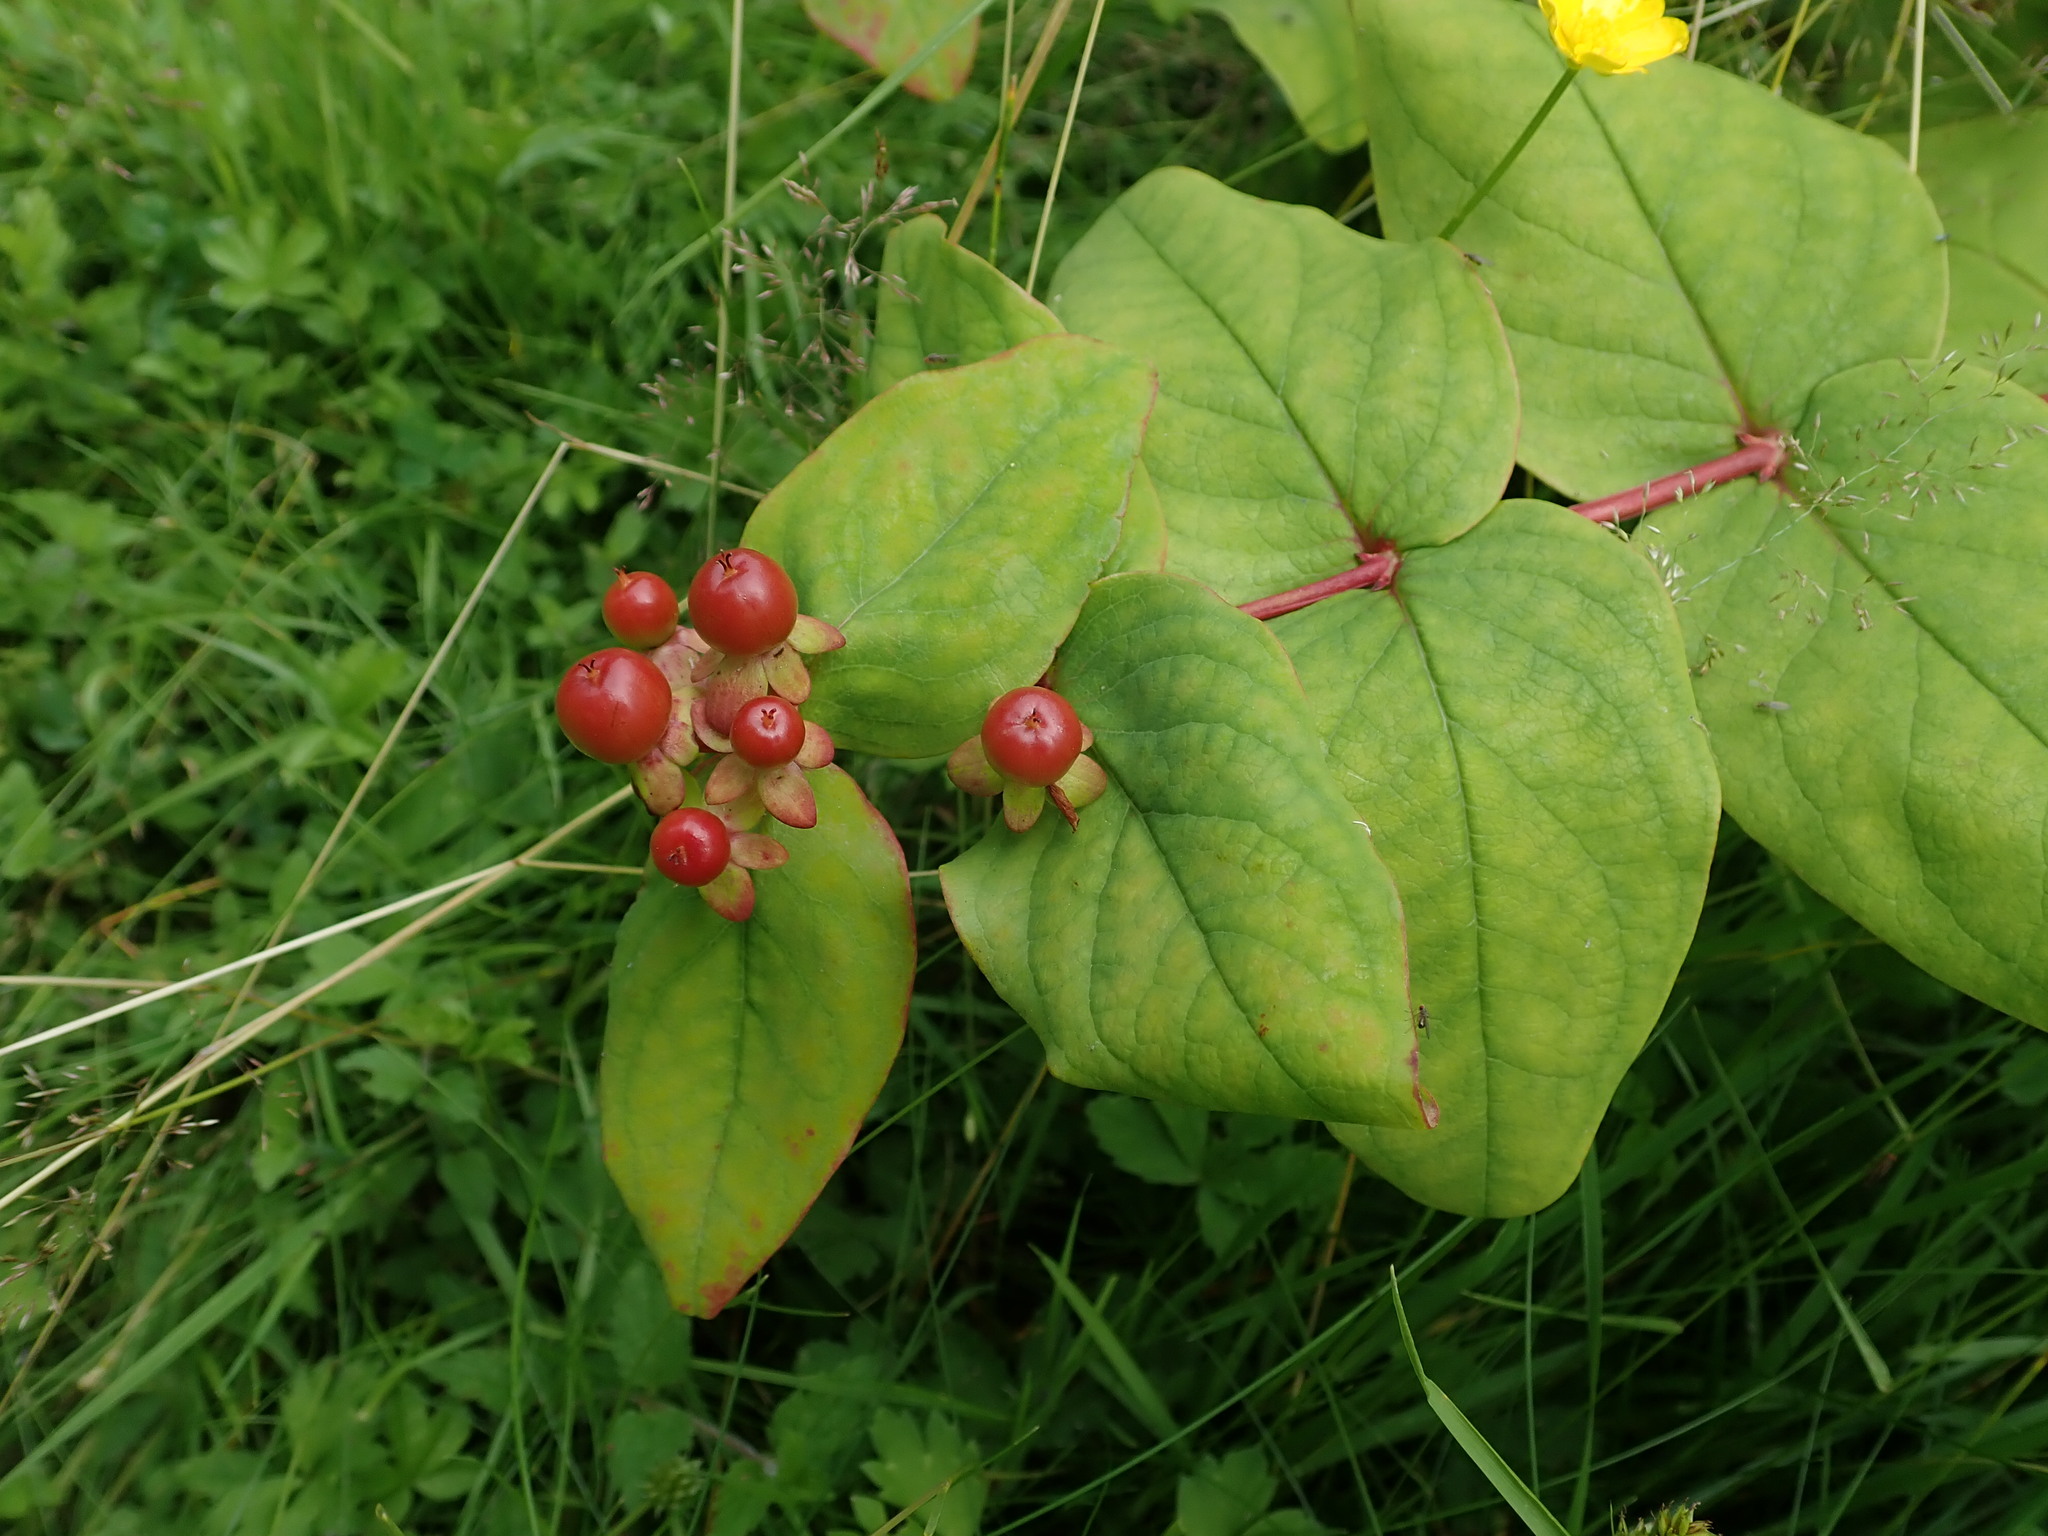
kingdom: Plantae
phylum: Tracheophyta
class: Magnoliopsida
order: Malpighiales
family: Hypericaceae
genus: Hypericum
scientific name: Hypericum androsaemum
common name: Sweet-amber
